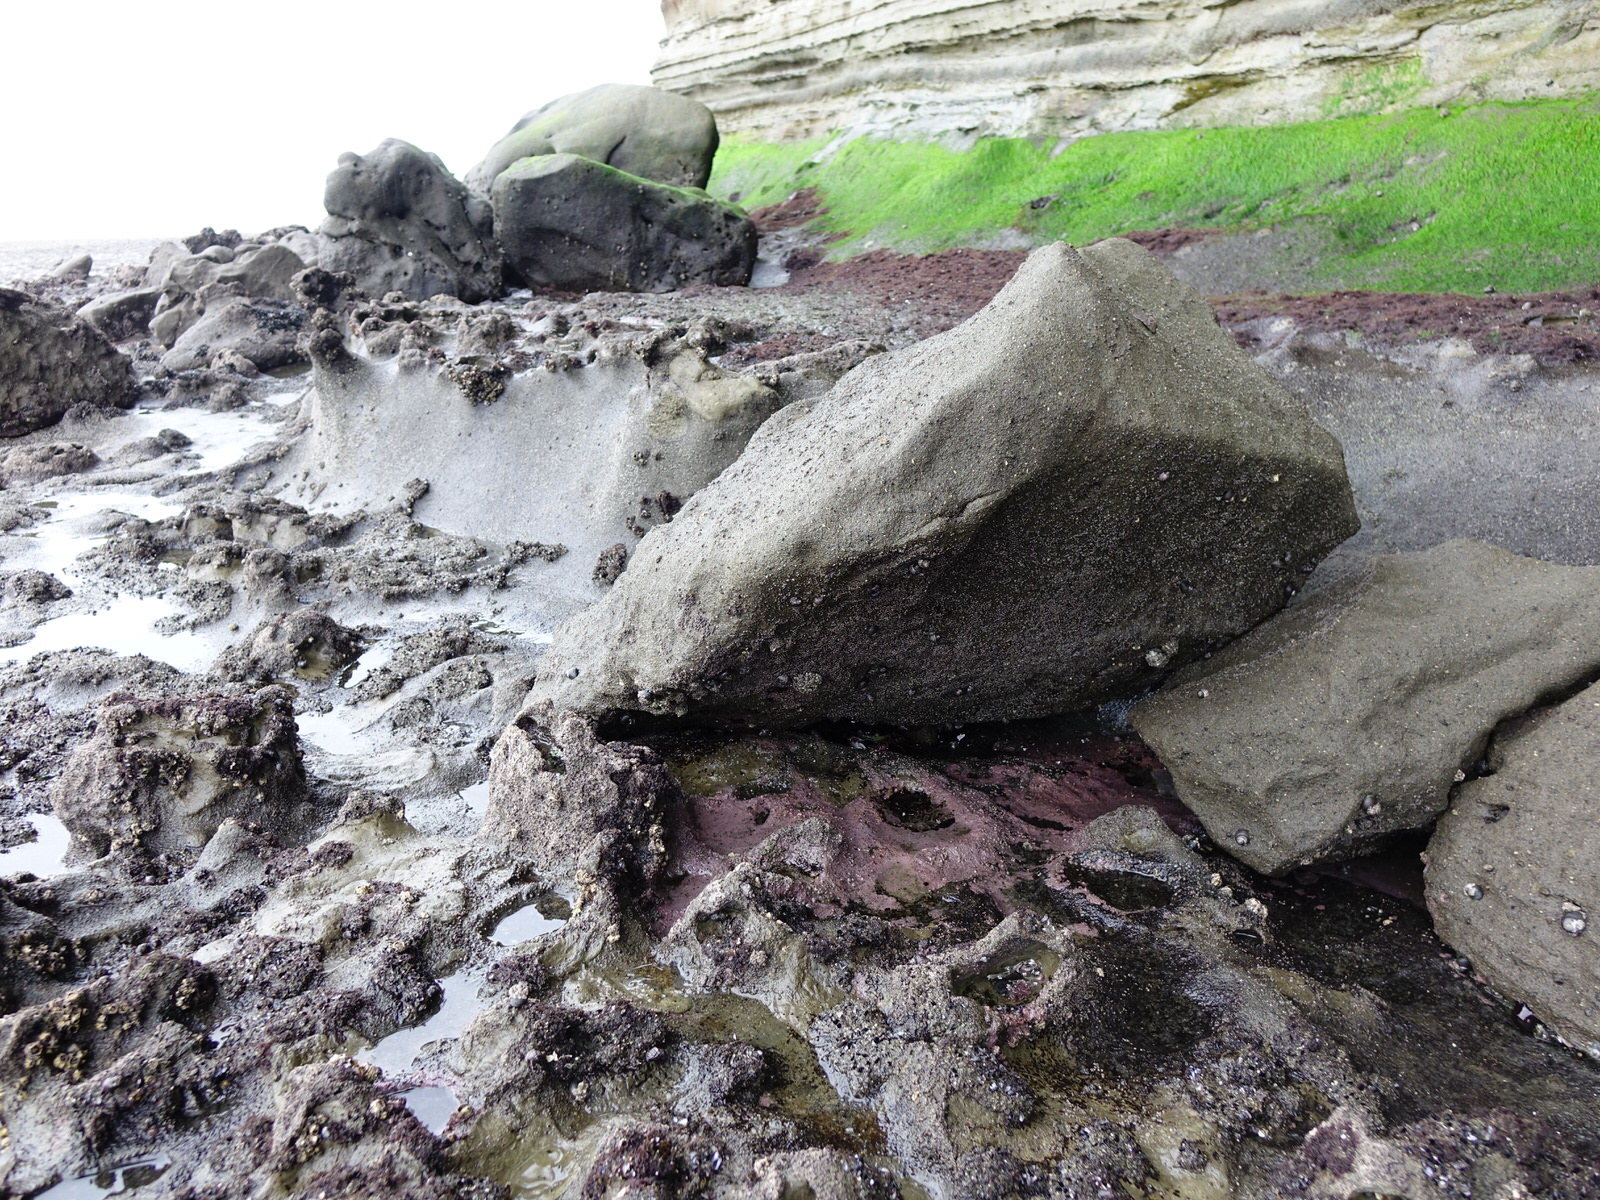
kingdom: Animalia
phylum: Arthropoda
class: Malacostraca
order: Decapoda
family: Grapsidae
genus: Leptograpsus
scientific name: Leptograpsus variegatus
